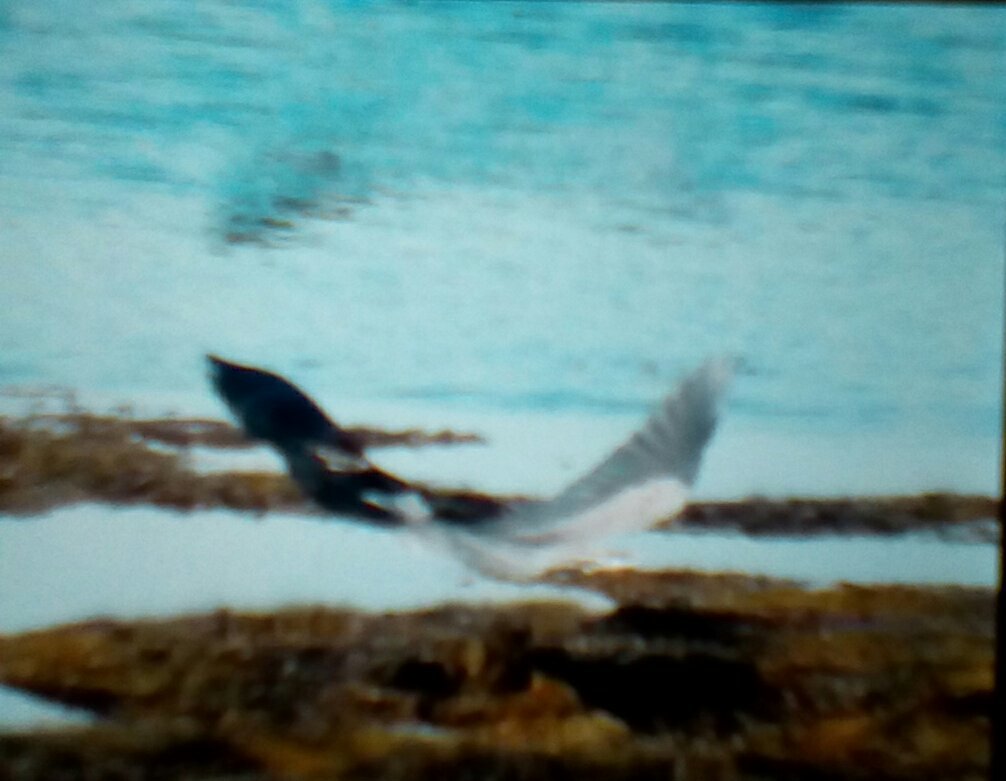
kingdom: Animalia
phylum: Chordata
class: Aves
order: Pelecaniformes
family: Ardeidae
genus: Ardea
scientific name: Ardea herodias
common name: Great blue heron
